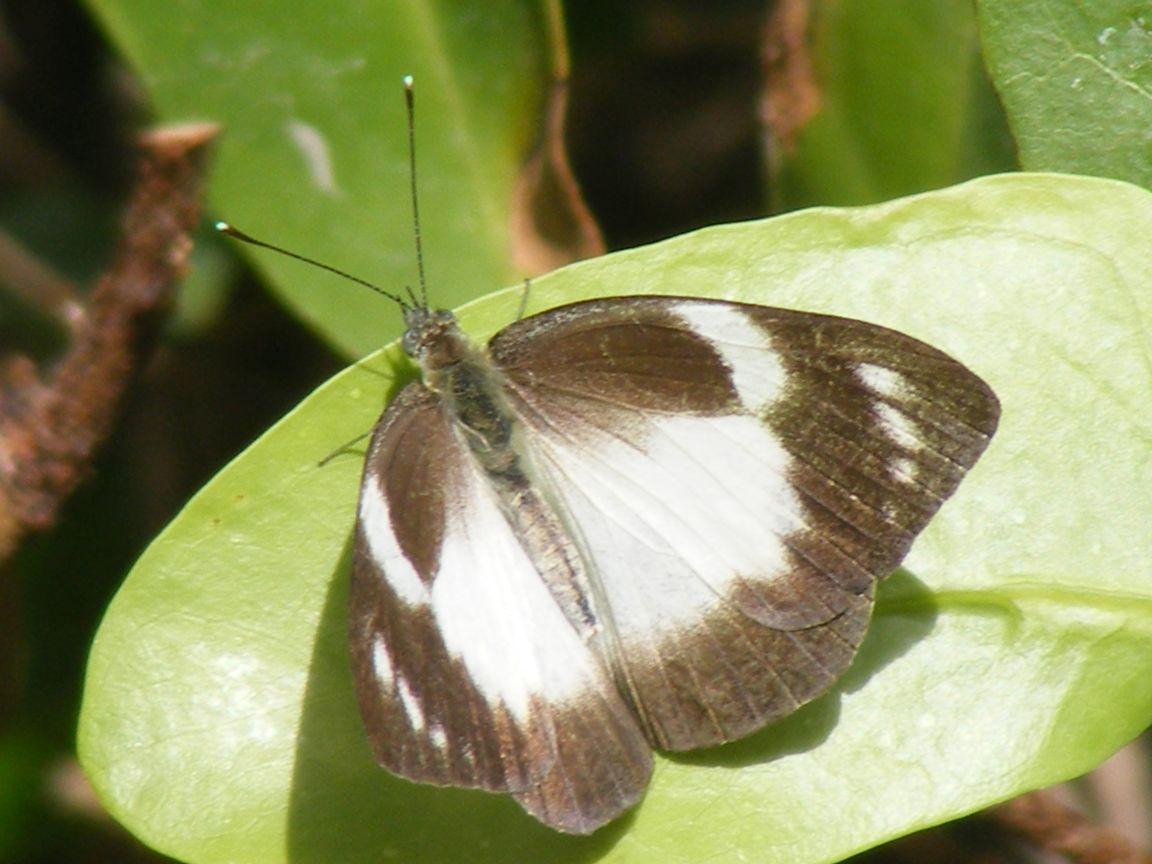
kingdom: Animalia
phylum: Arthropoda
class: Insecta
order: Lepidoptera
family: Pieridae
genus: Glutophrissa
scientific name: Glutophrissa epaphia
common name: African albatross
